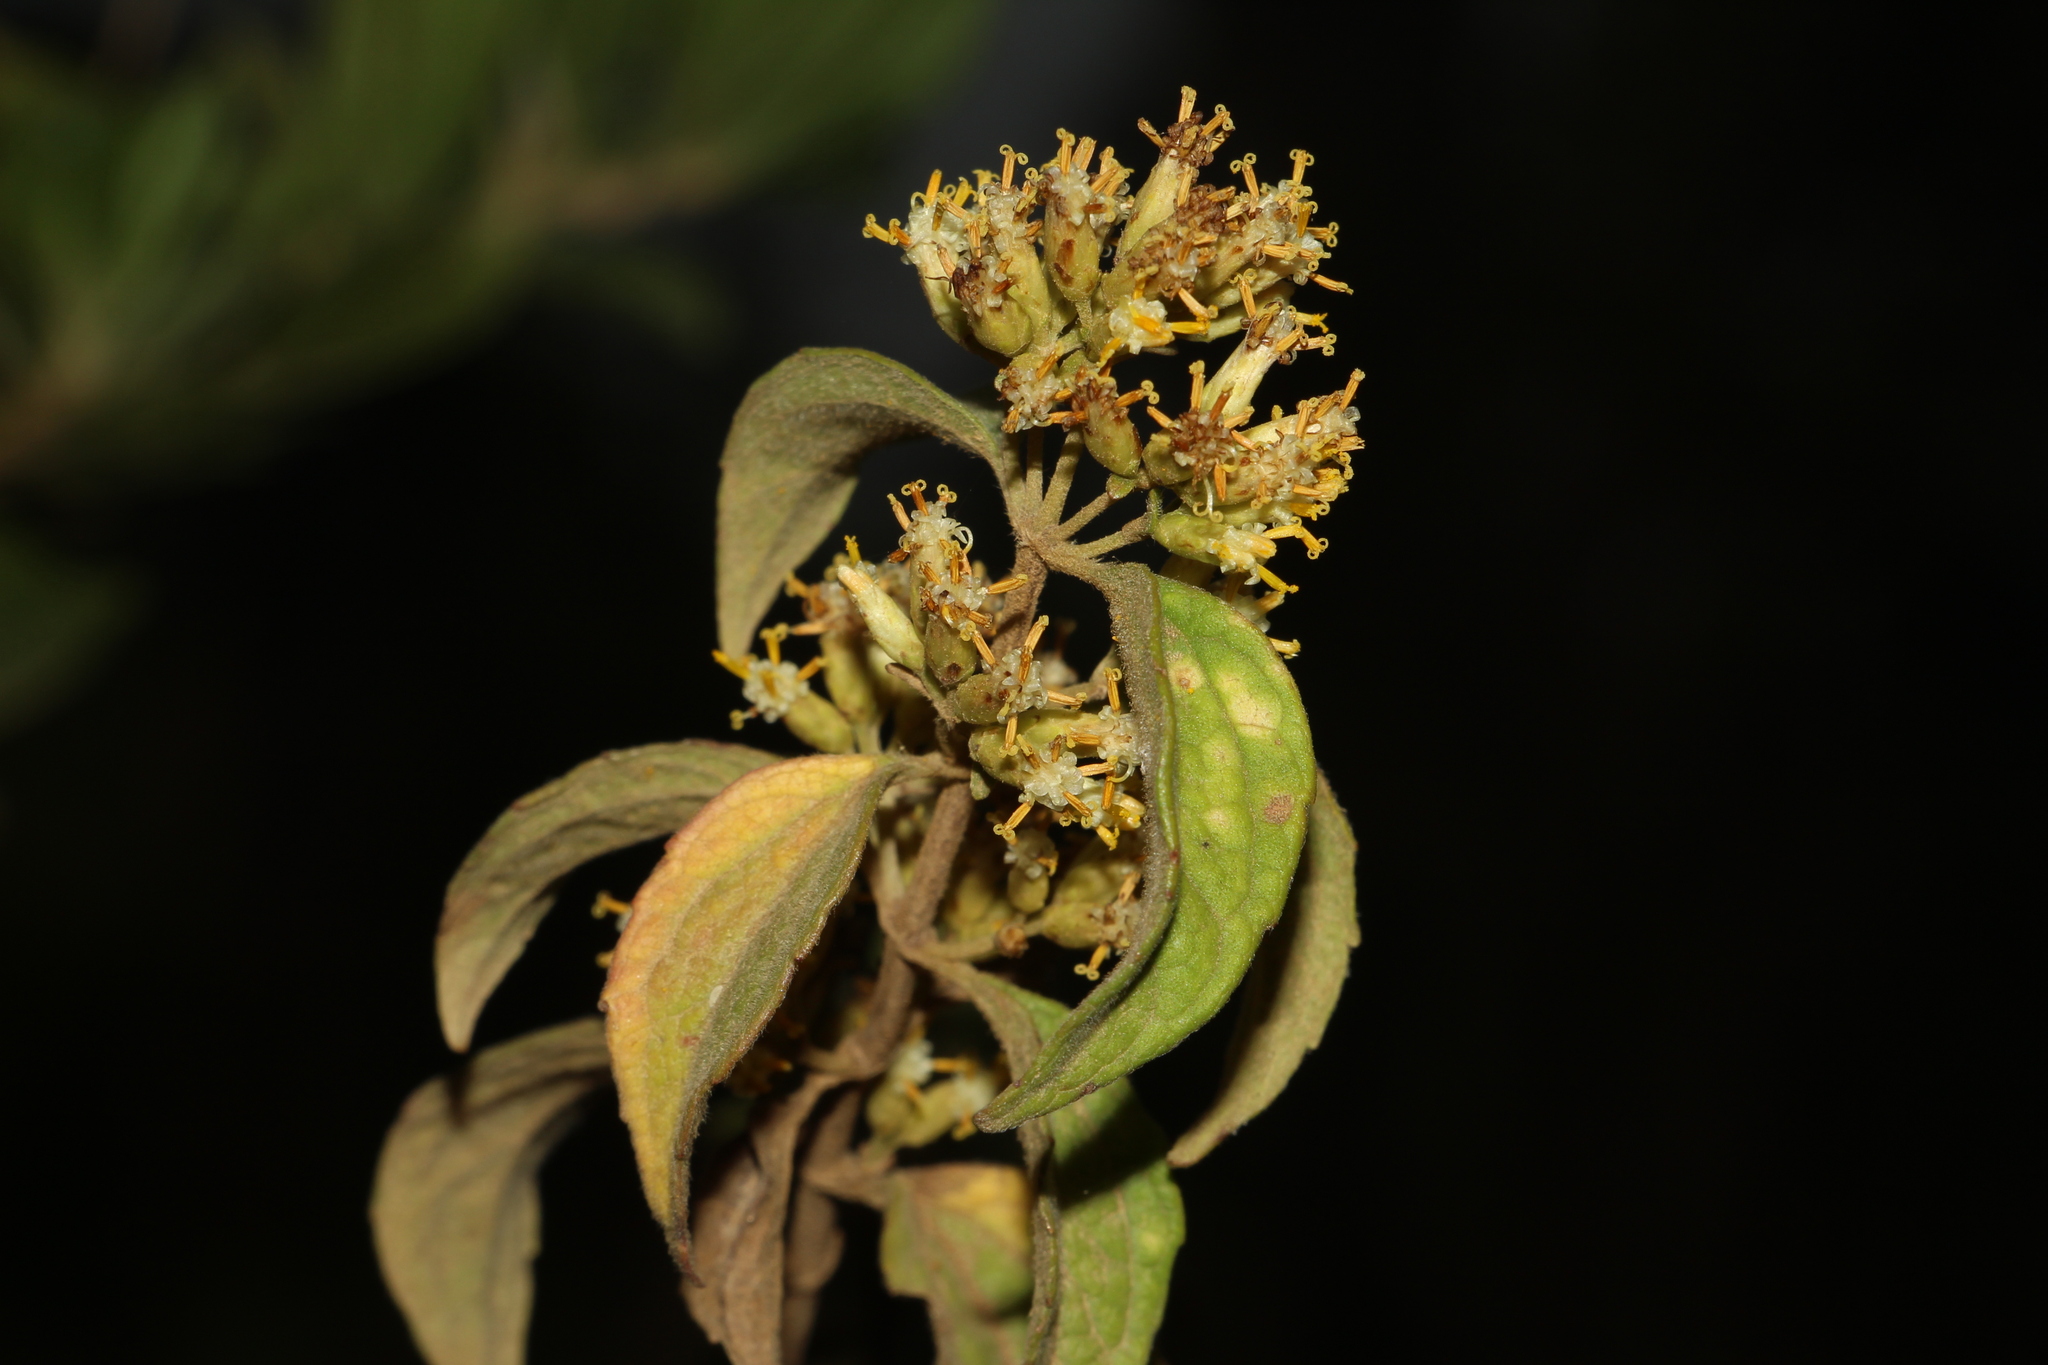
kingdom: Plantae
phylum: Tracheophyta
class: Magnoliopsida
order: Asterales
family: Asteraceae
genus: Calea
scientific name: Calea ternifolia
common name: Mexican calea
